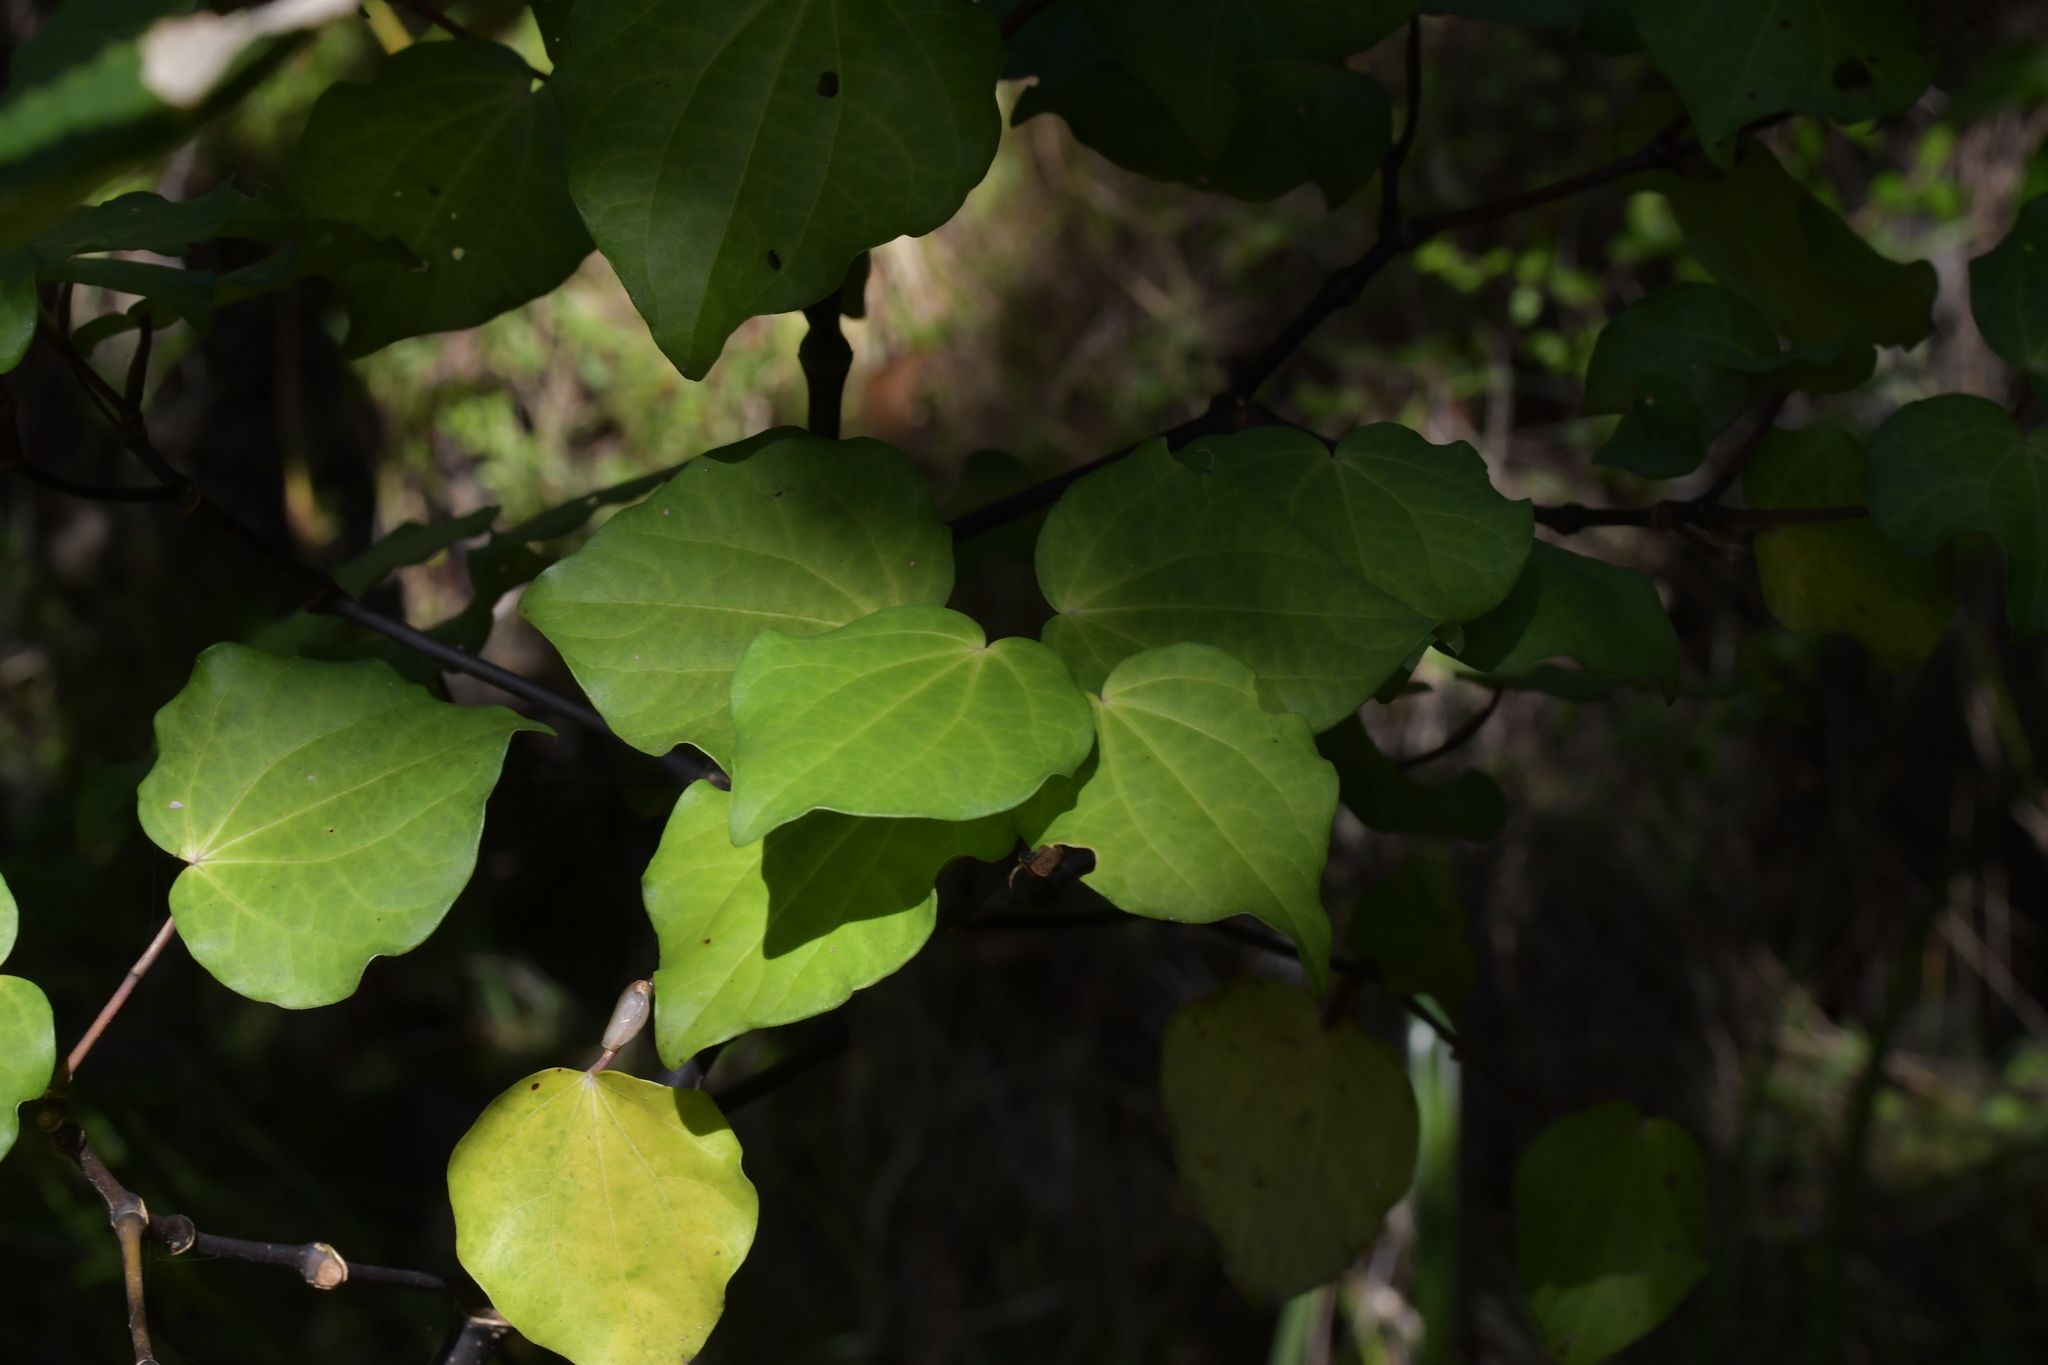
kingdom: Plantae
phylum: Tracheophyta
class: Magnoliopsida
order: Piperales
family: Piperaceae
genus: Macropiper
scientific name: Macropiper excelsum
